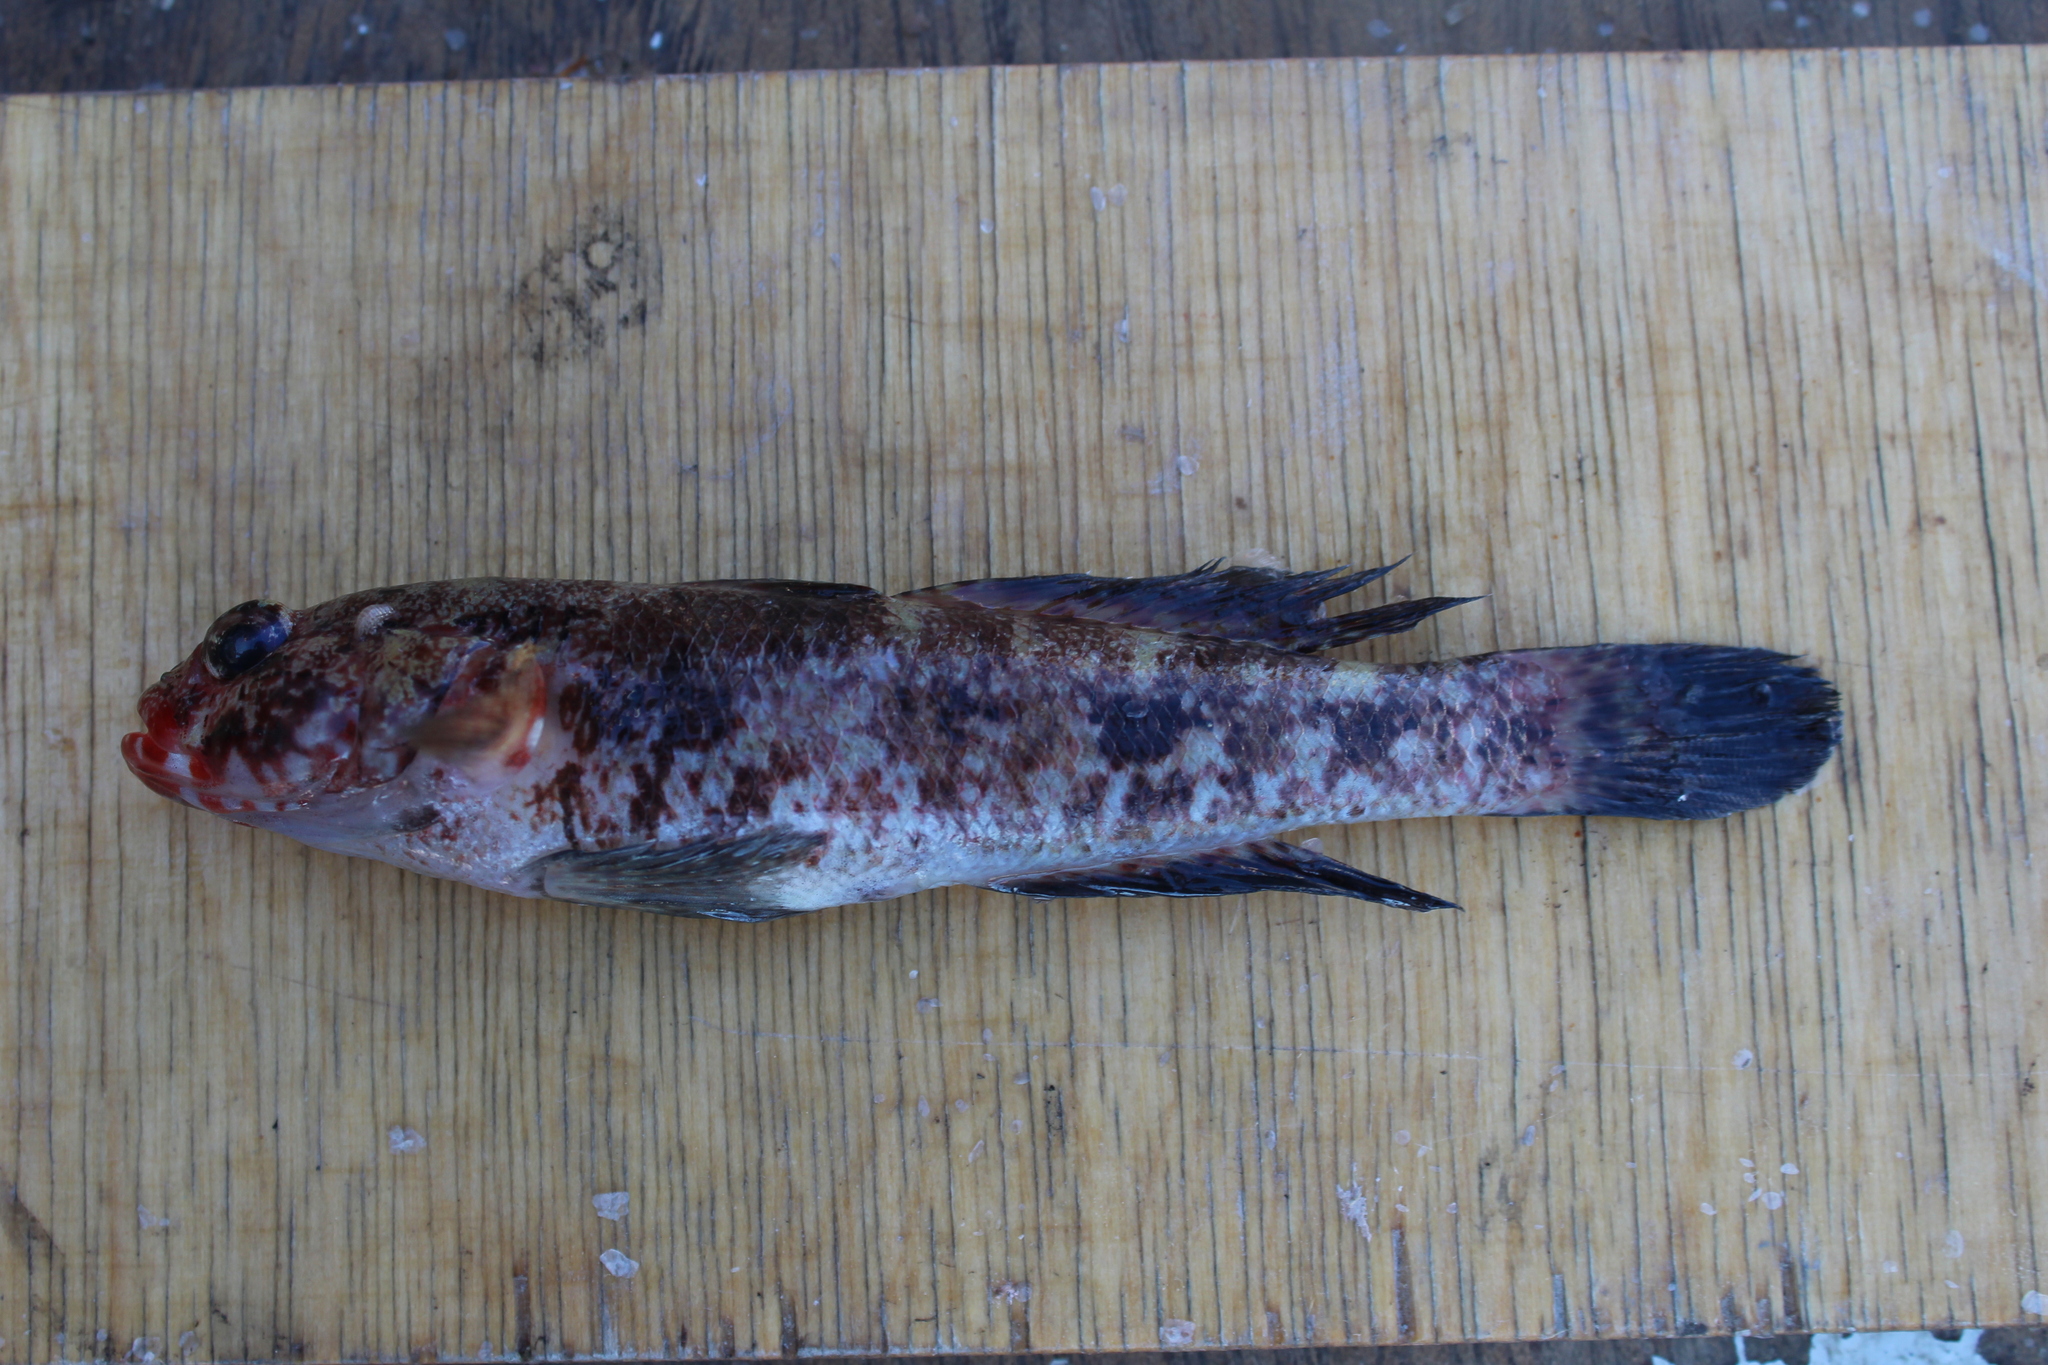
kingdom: Animalia
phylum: Chordata
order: Perciformes
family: Gobiidae
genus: Gobius
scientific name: Gobius cruentatus
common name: Red-mouthed goby
